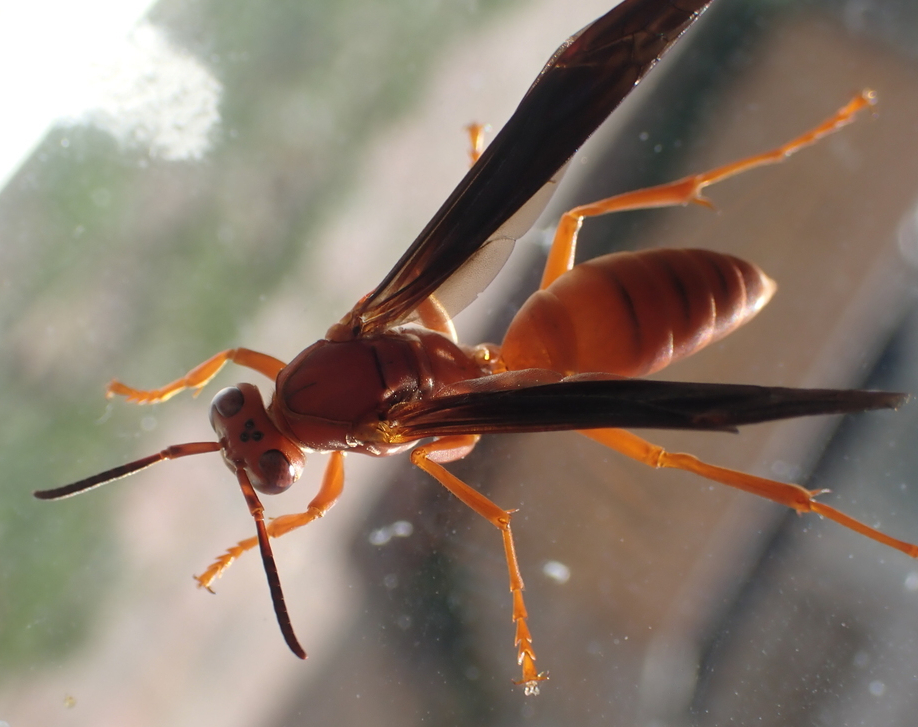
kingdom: Animalia
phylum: Arthropoda
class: Insecta
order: Hymenoptera
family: Eumenidae
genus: Polistes
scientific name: Polistes carolina
